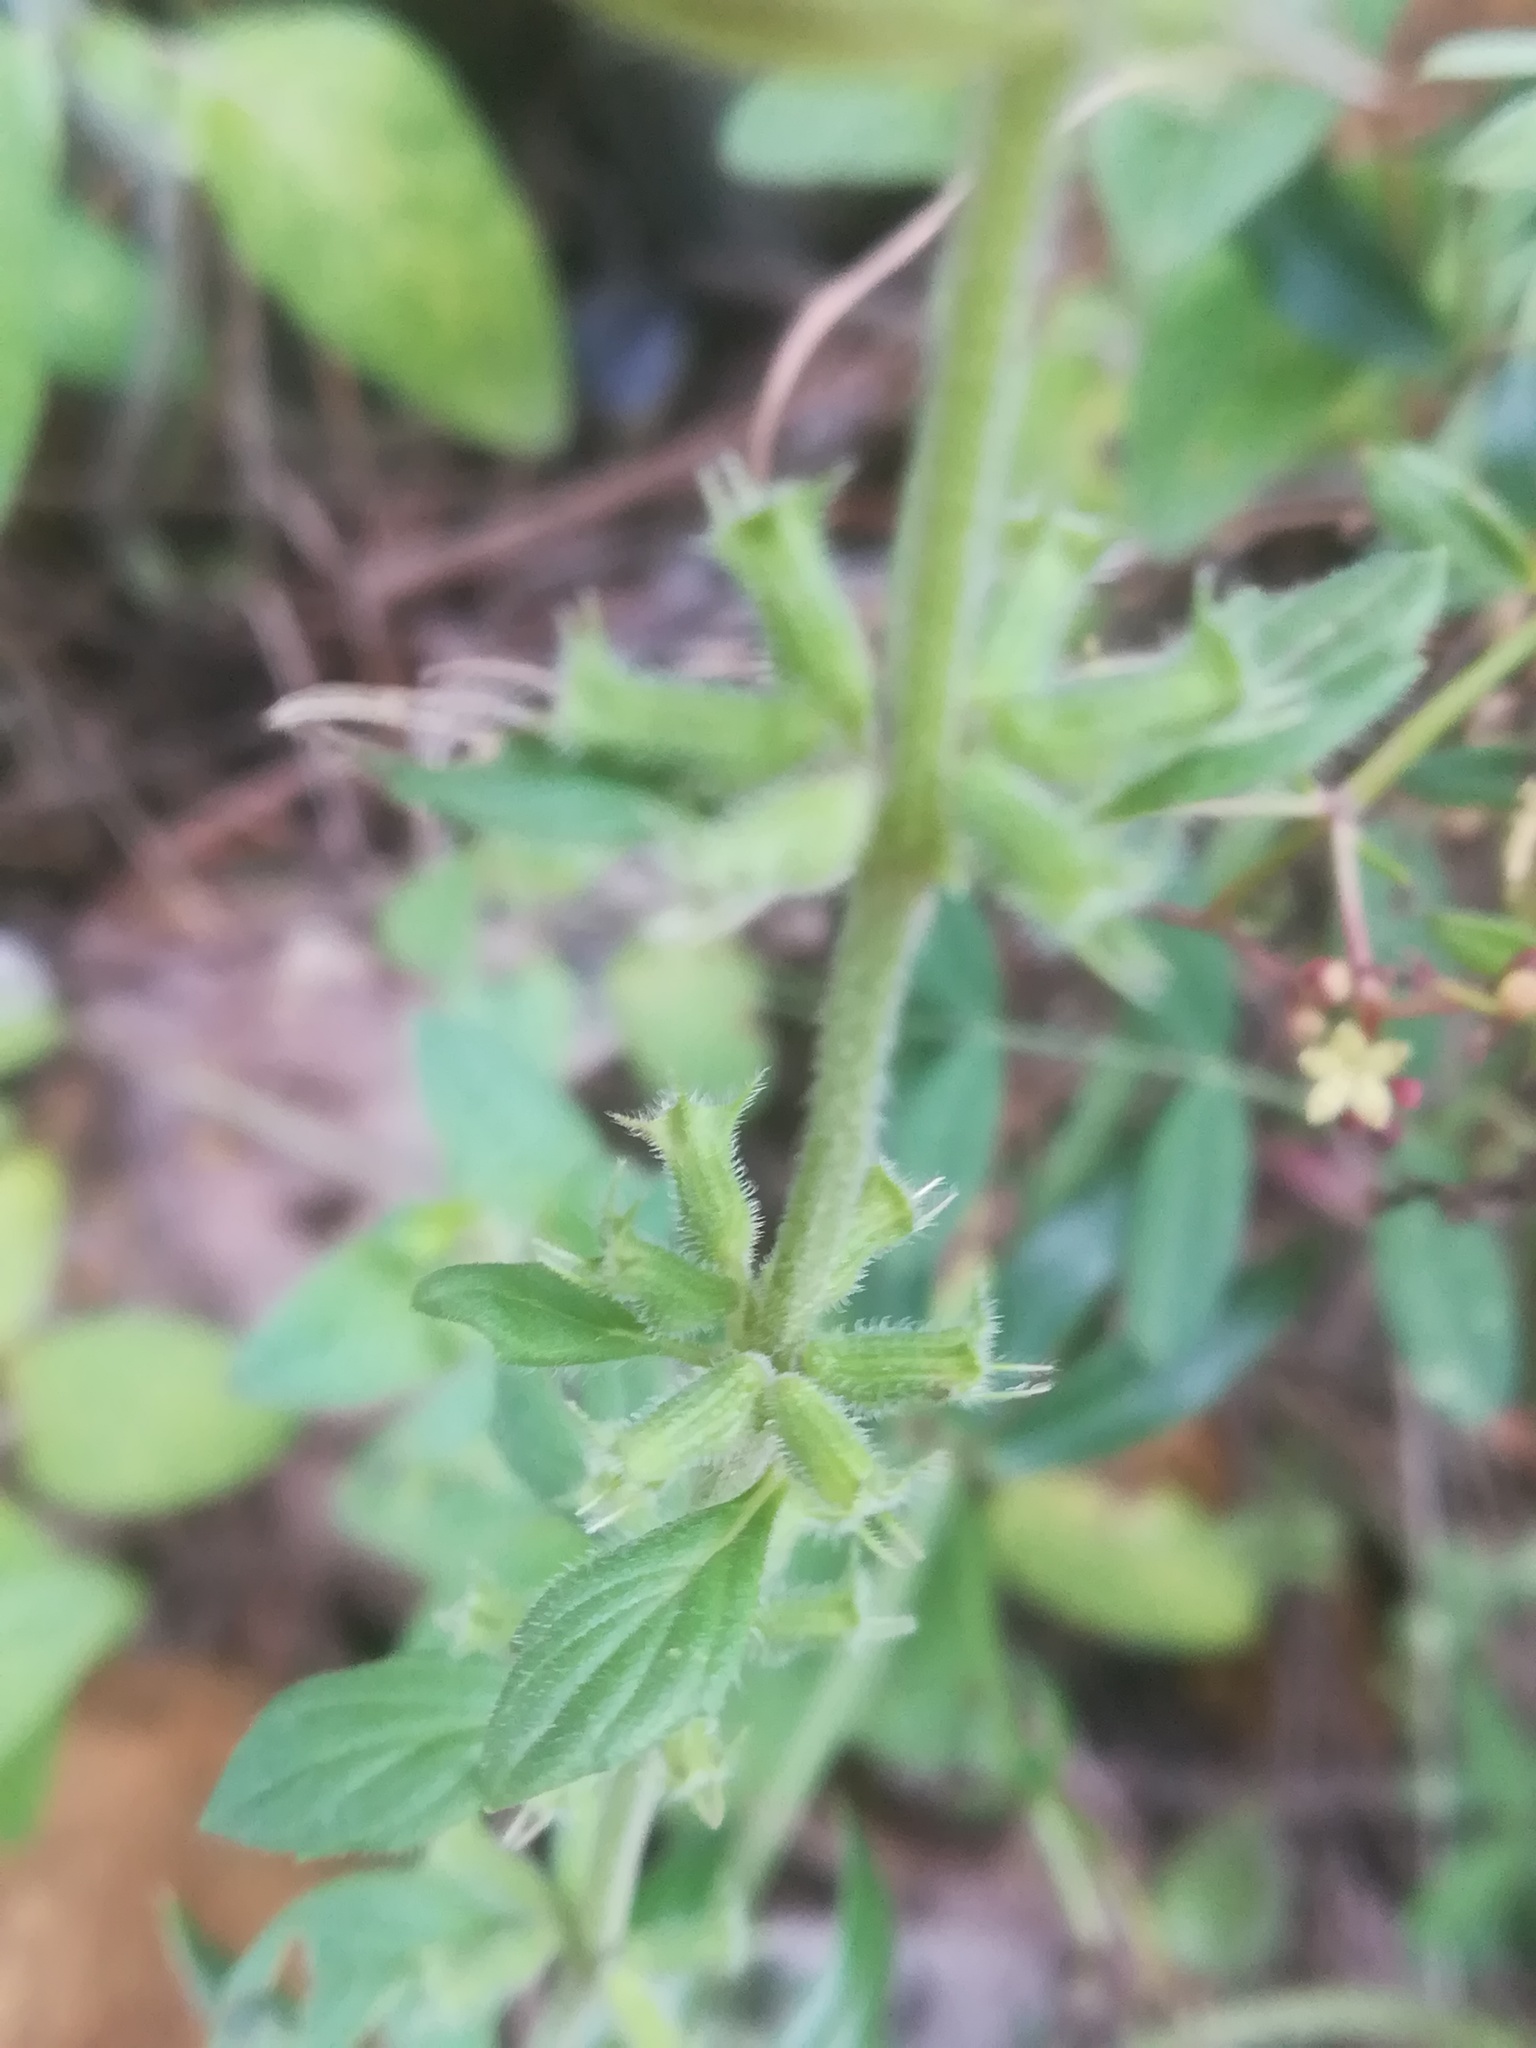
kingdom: Plantae
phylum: Tracheophyta
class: Magnoliopsida
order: Lamiales
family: Lamiaceae
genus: Clinopodium
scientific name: Clinopodium acinos
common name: Basil thyme
